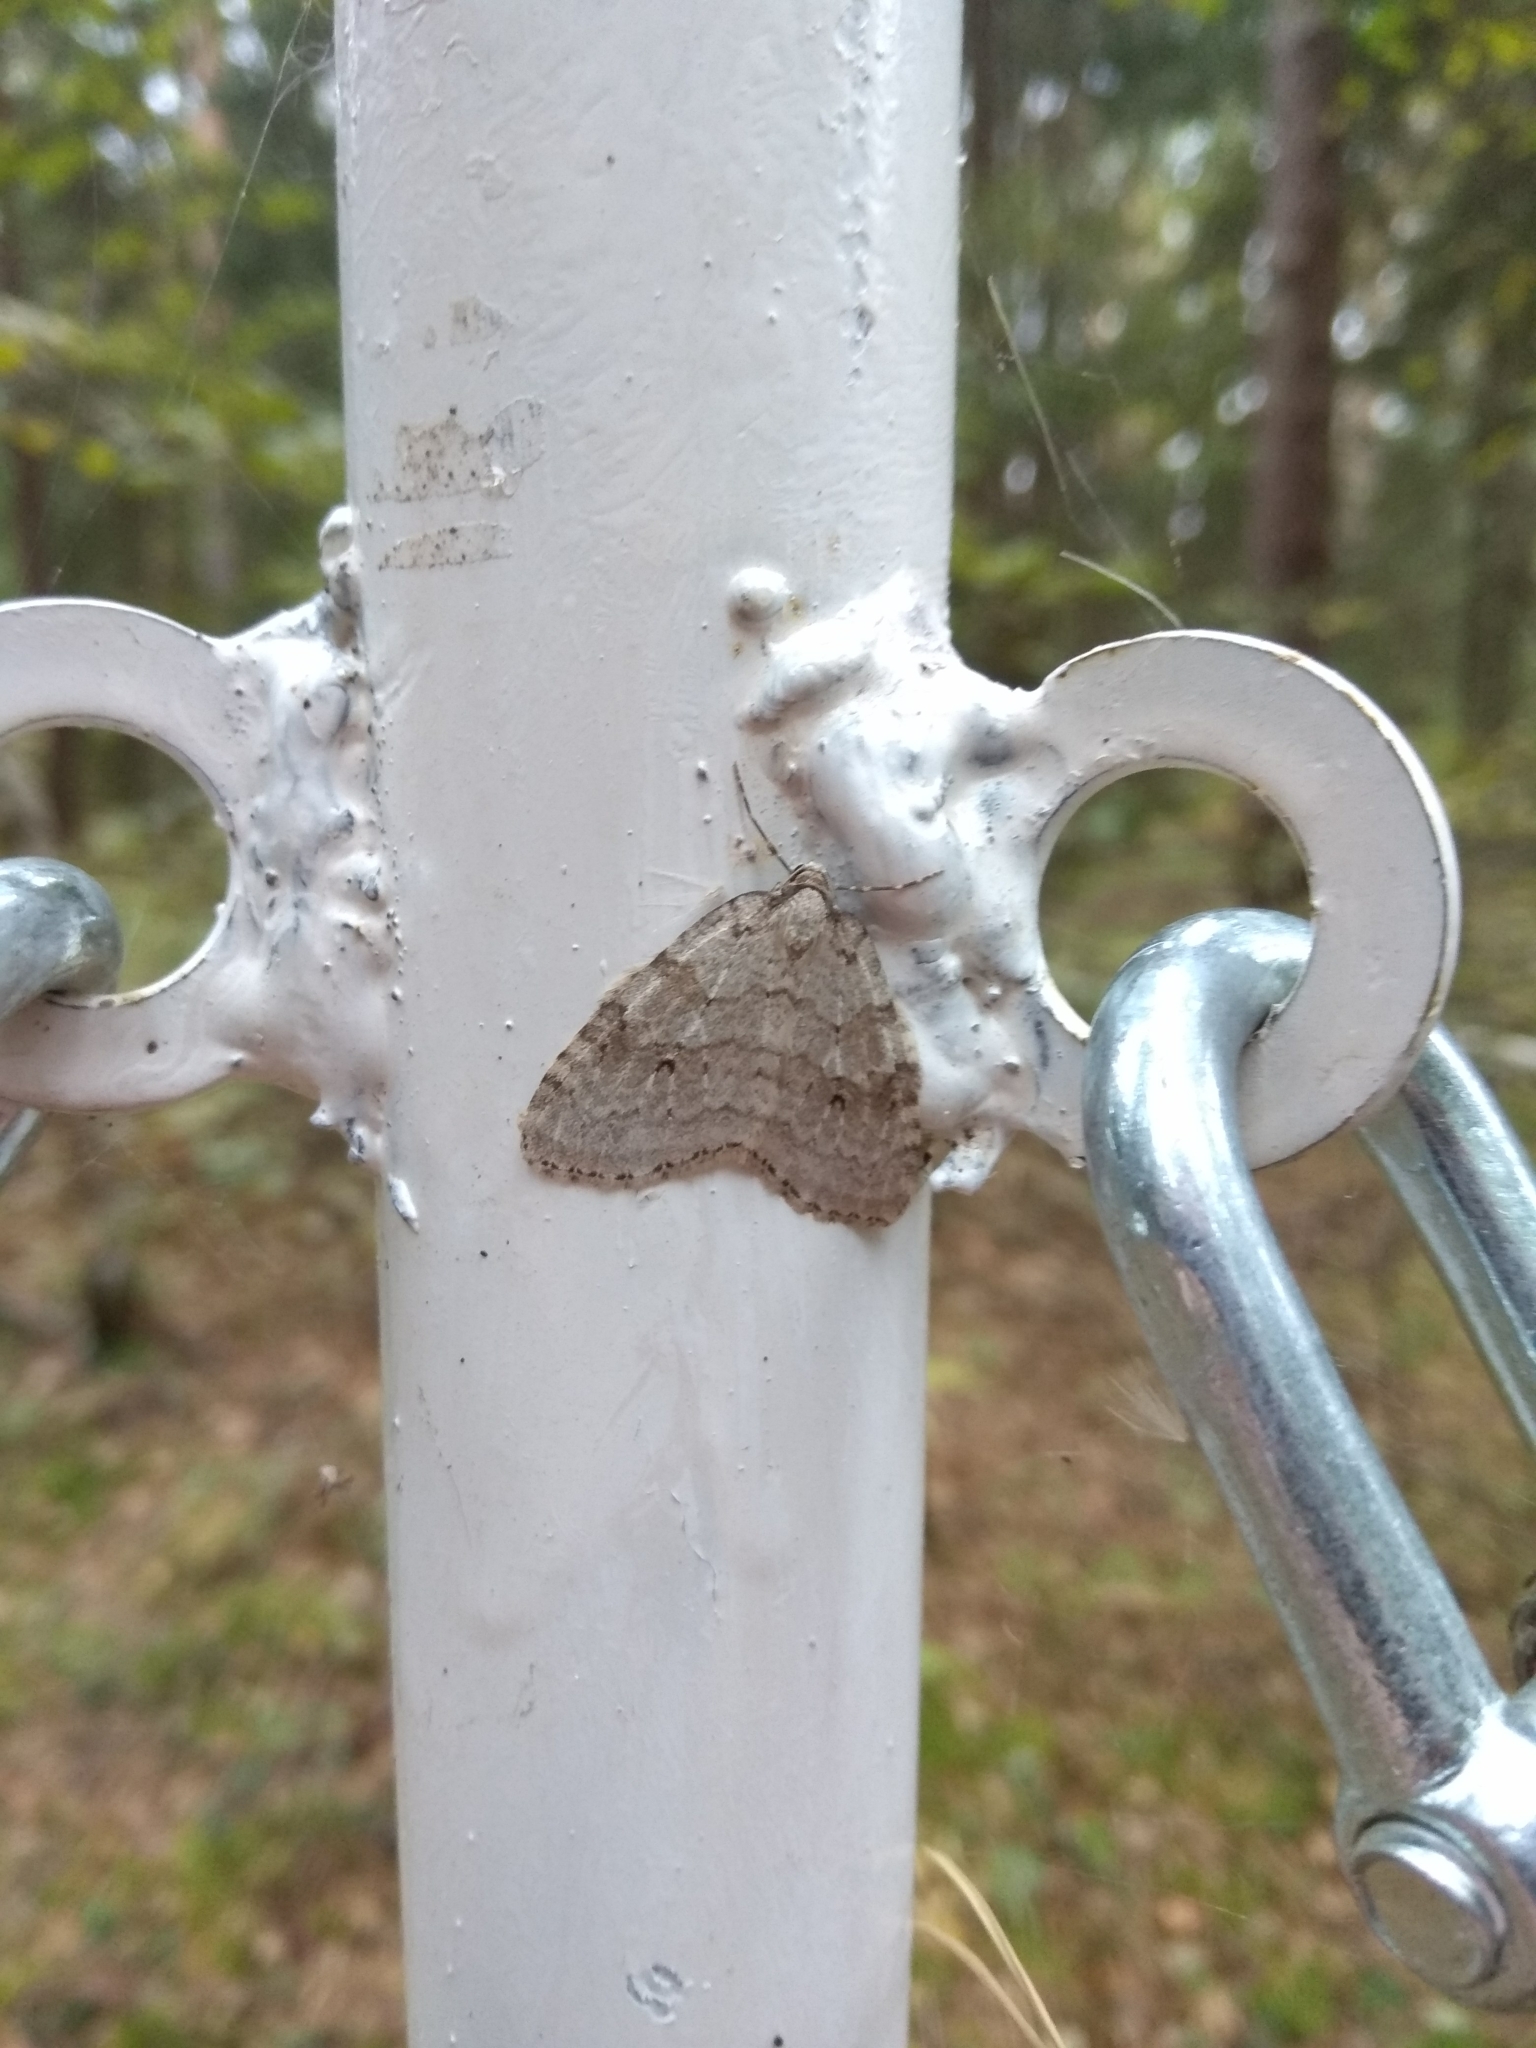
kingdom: Animalia
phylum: Arthropoda
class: Insecta
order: Lepidoptera
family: Geometridae
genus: Epirrita
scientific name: Epirrita autumnata
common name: Autumnal moth
